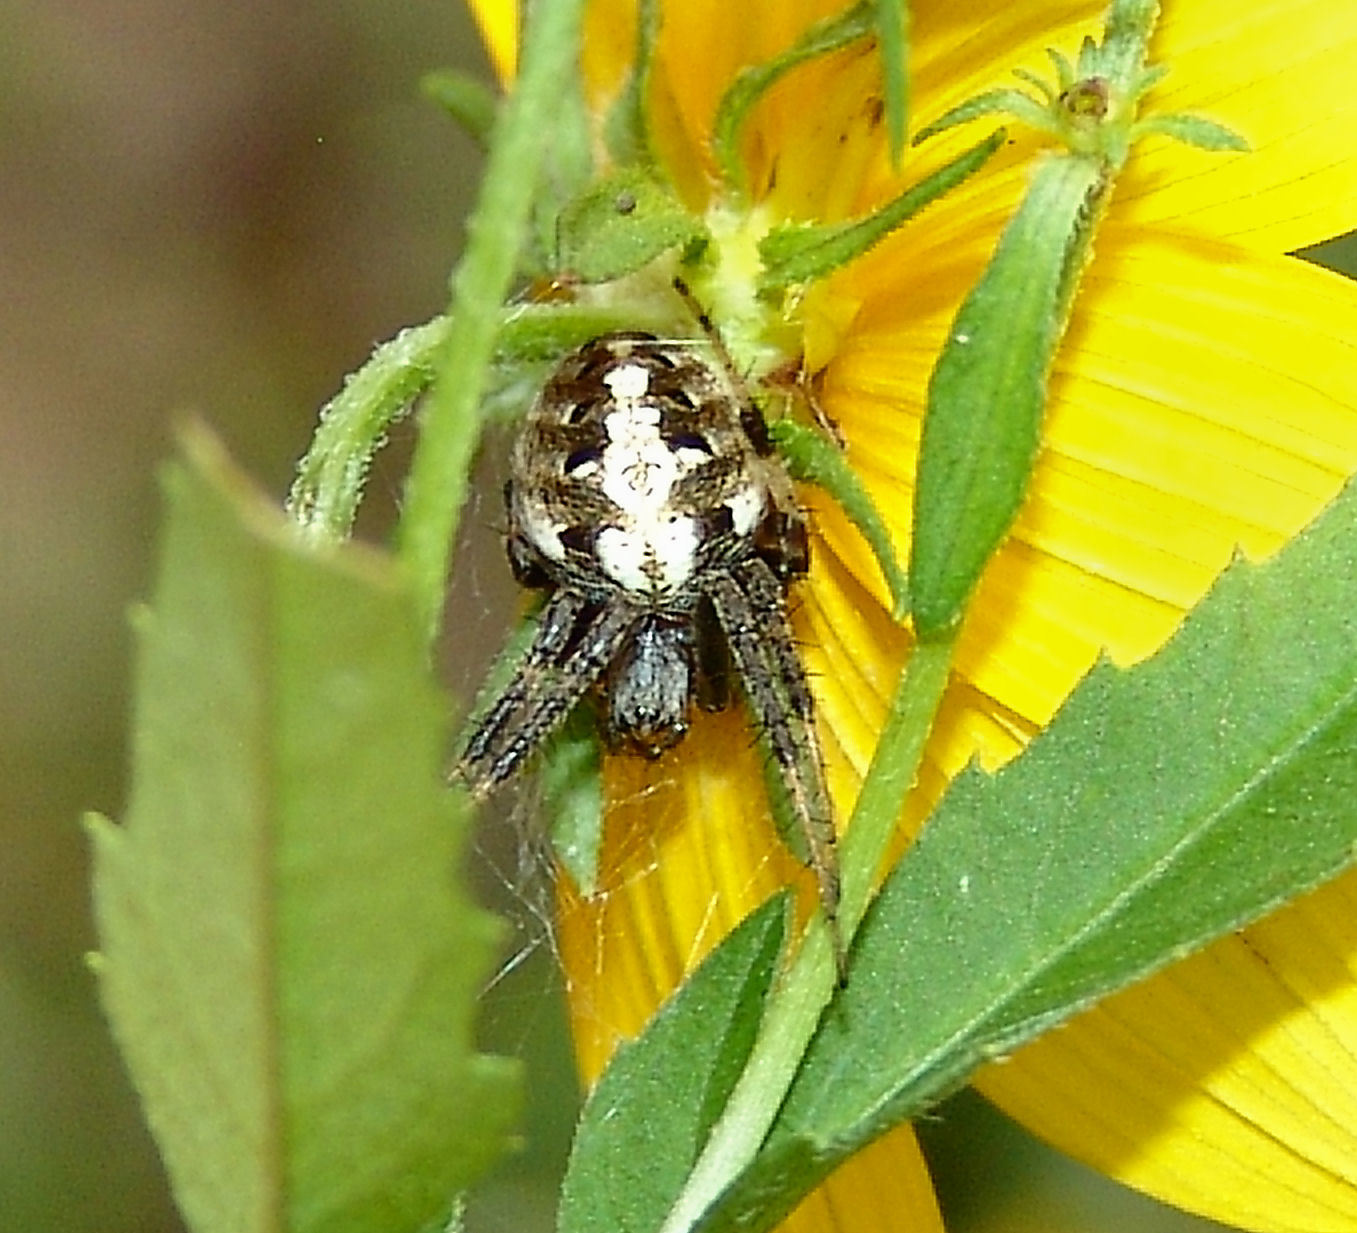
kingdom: Animalia
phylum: Arthropoda
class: Arachnida
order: Araneae
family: Araneidae
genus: Neoscona
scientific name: Neoscona arabesca
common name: Orb weavers
